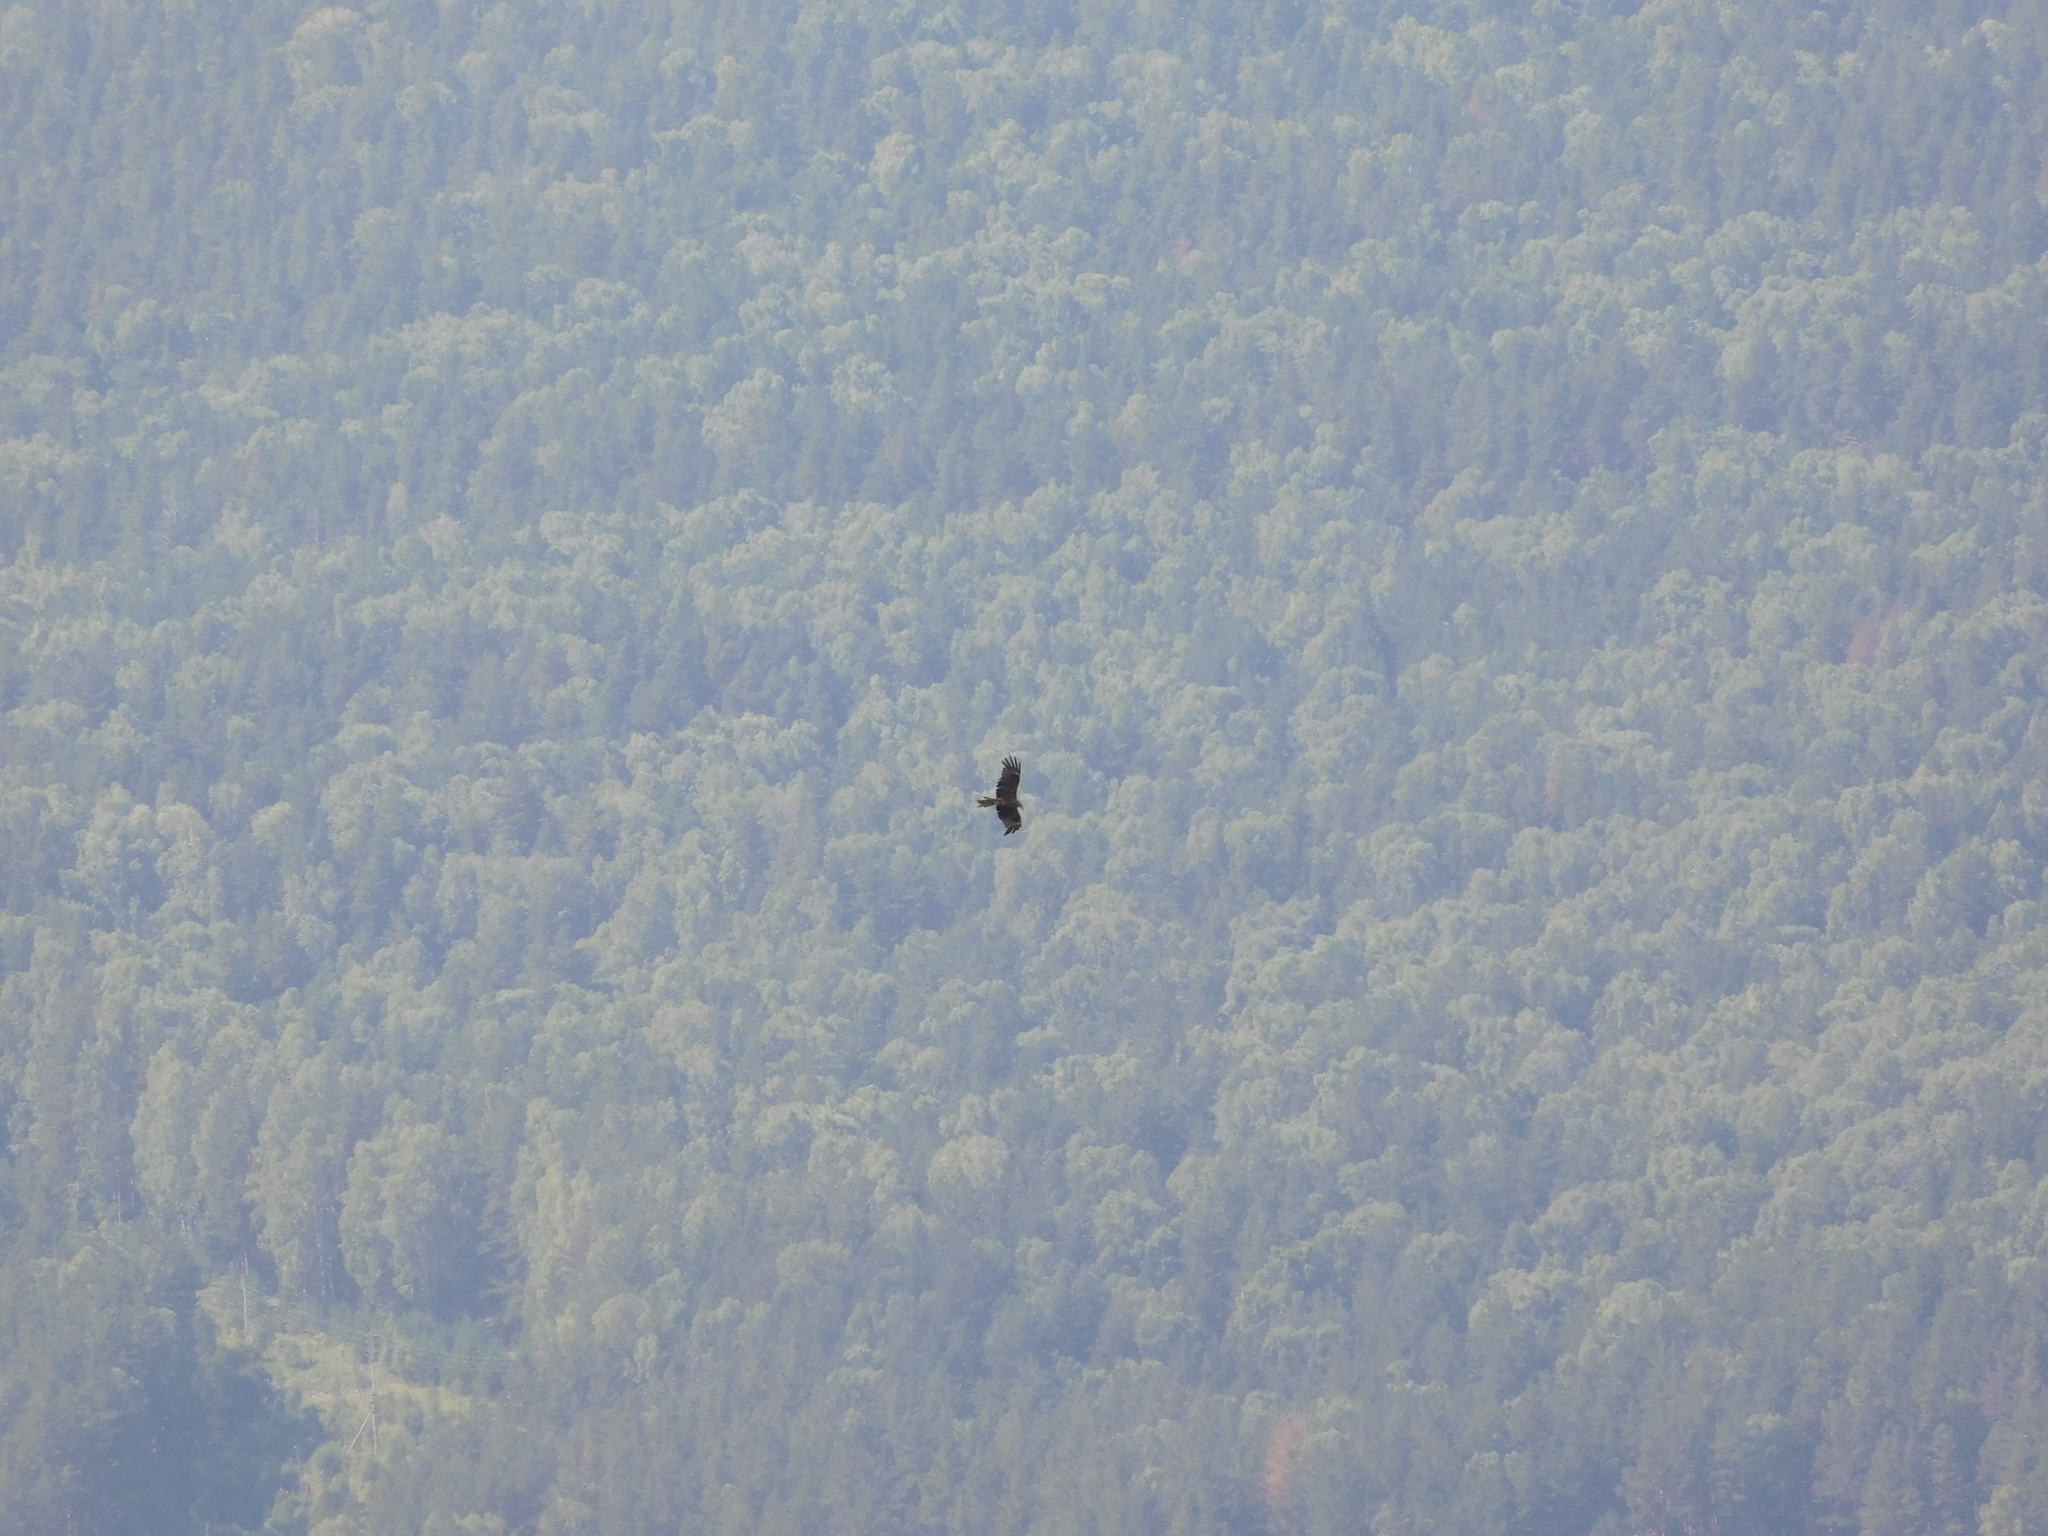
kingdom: Animalia
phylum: Chordata
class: Aves
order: Accipitriformes
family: Accipitridae
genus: Milvus
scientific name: Milvus migrans
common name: Black kite
